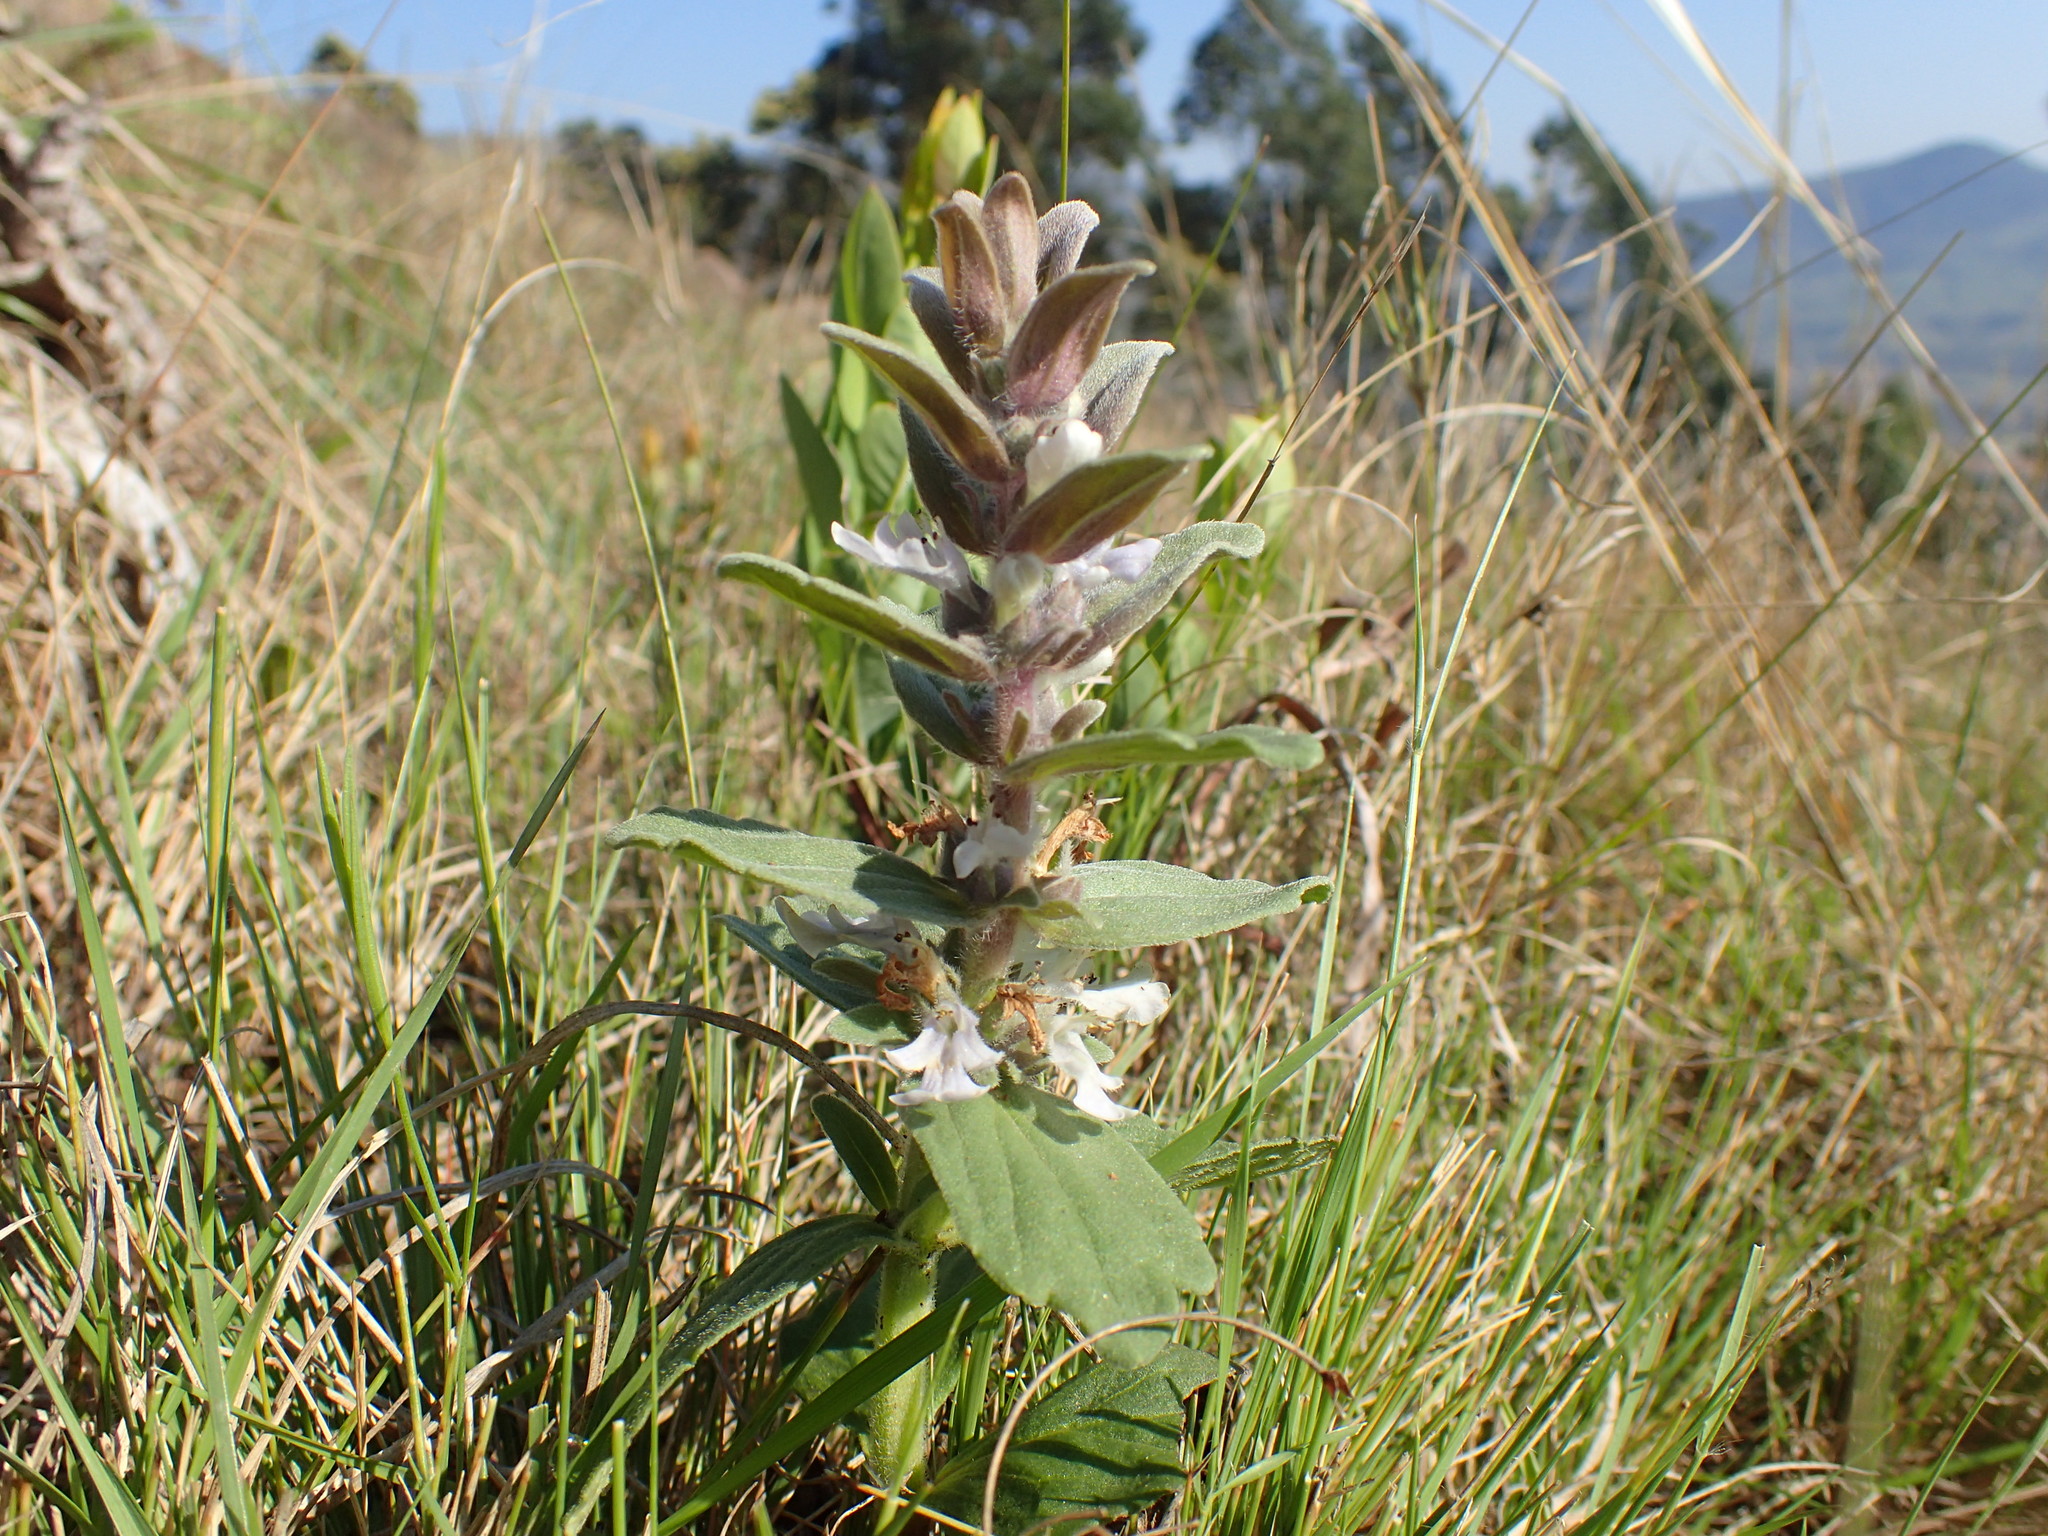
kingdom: Plantae
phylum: Tracheophyta
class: Magnoliopsida
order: Lamiales
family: Lamiaceae
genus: Ajuga
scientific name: Ajuga ophrydis
